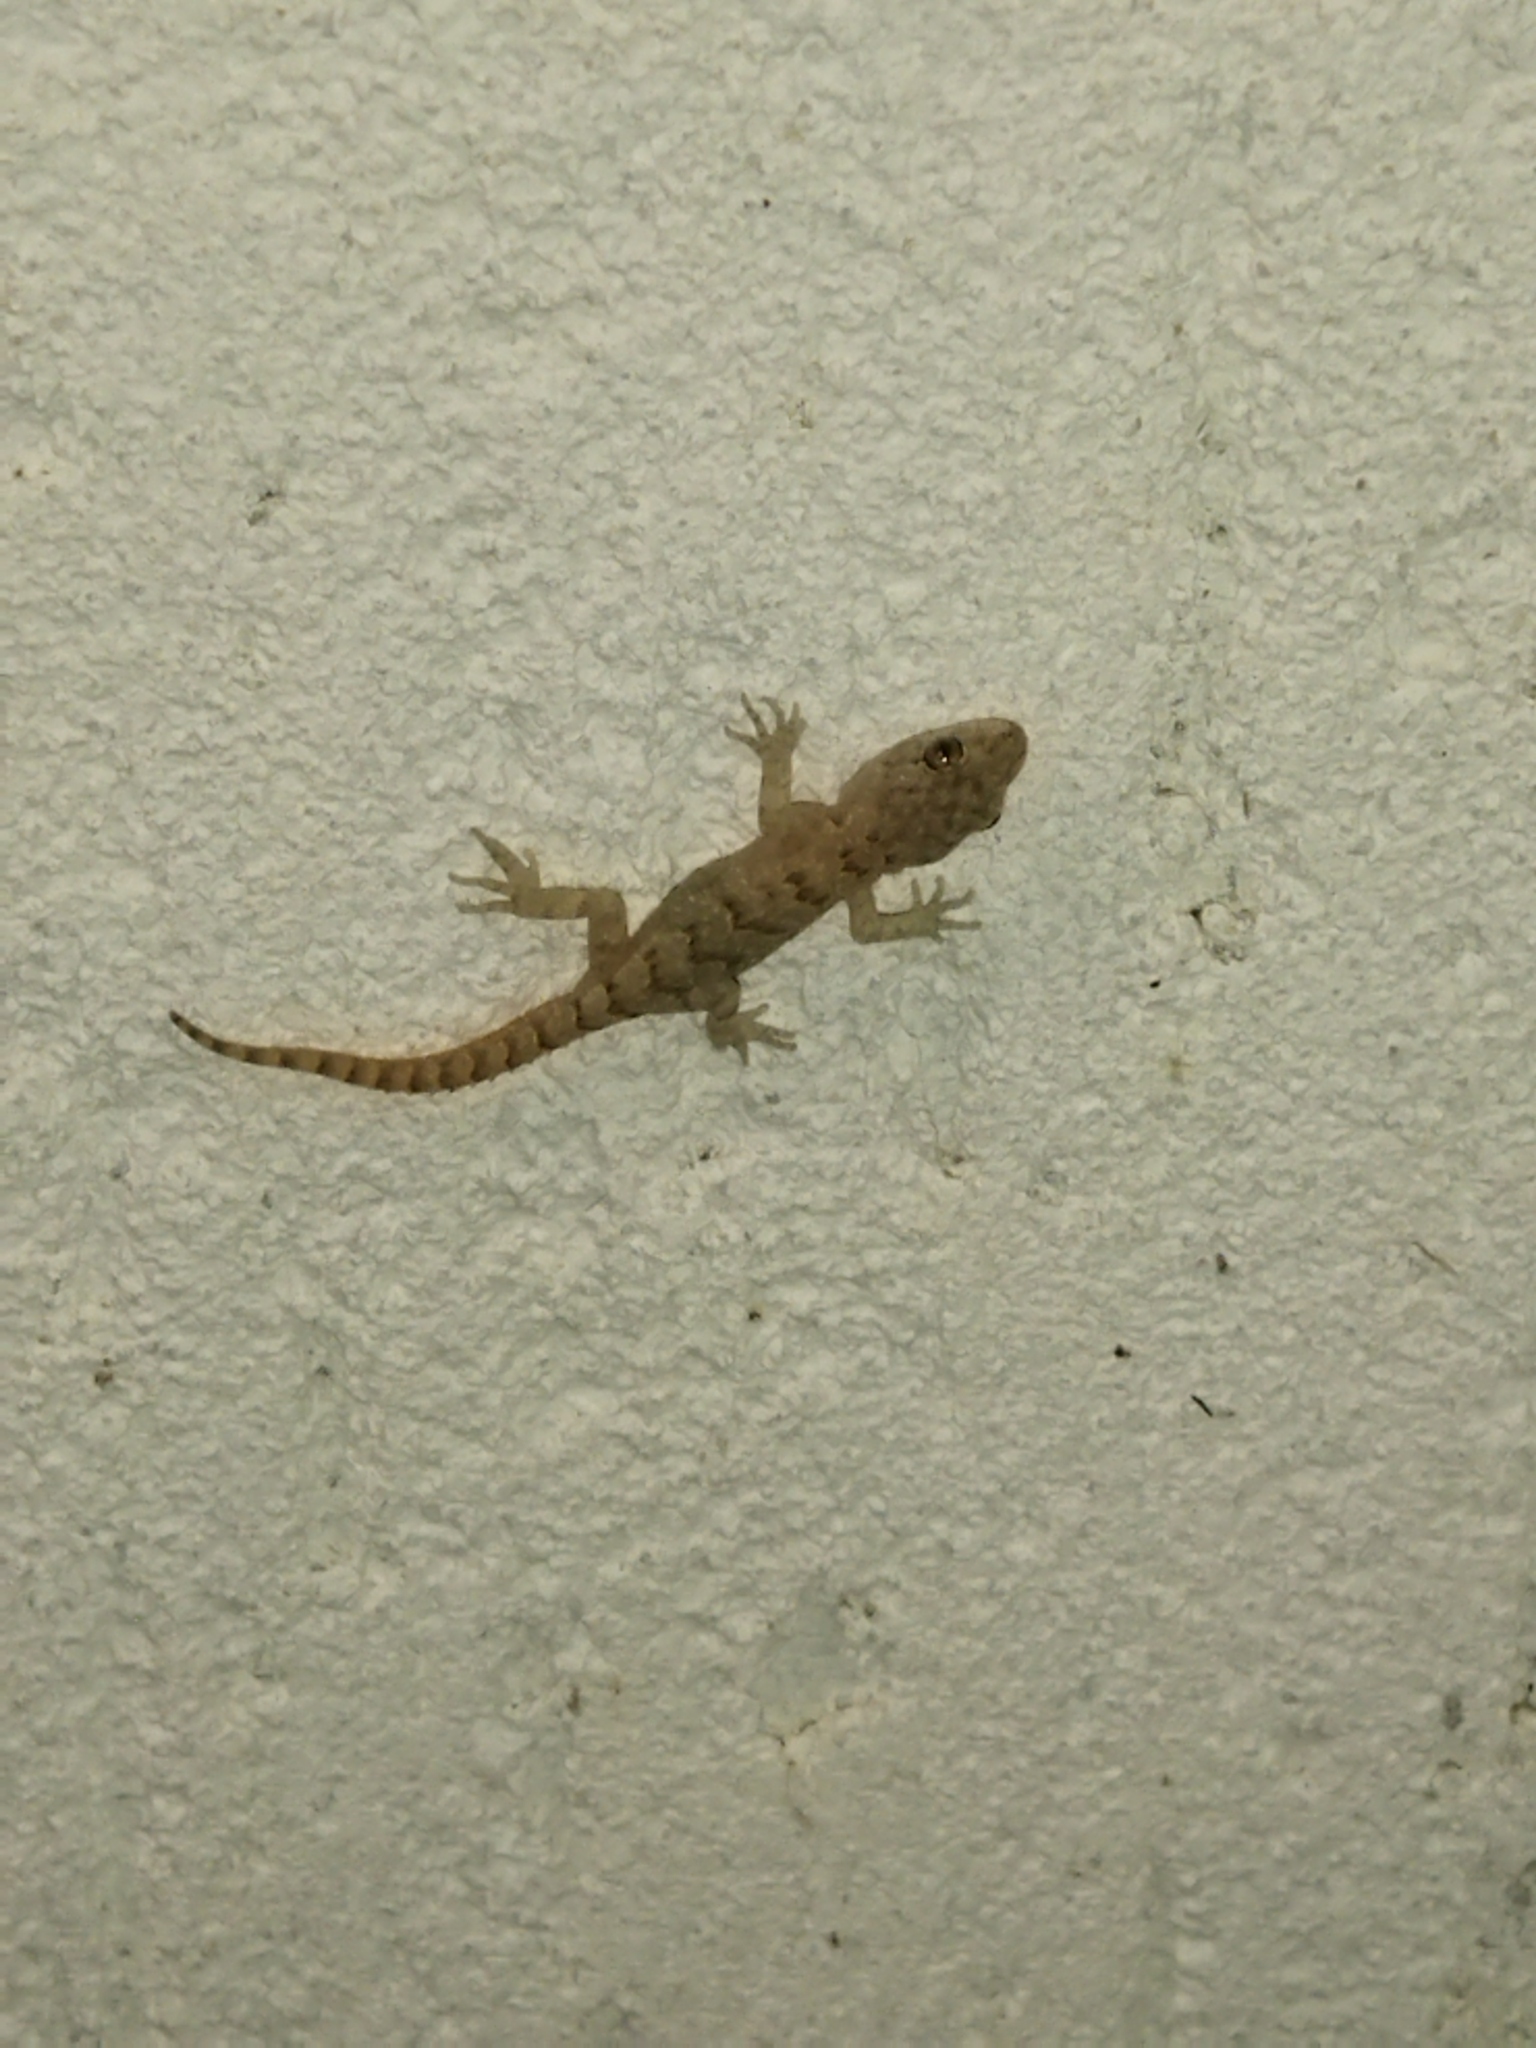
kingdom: Animalia
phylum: Chordata
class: Squamata
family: Gekkonidae
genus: Mediodactylus
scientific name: Mediodactylus kotschyi
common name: Kotschy's gecko
